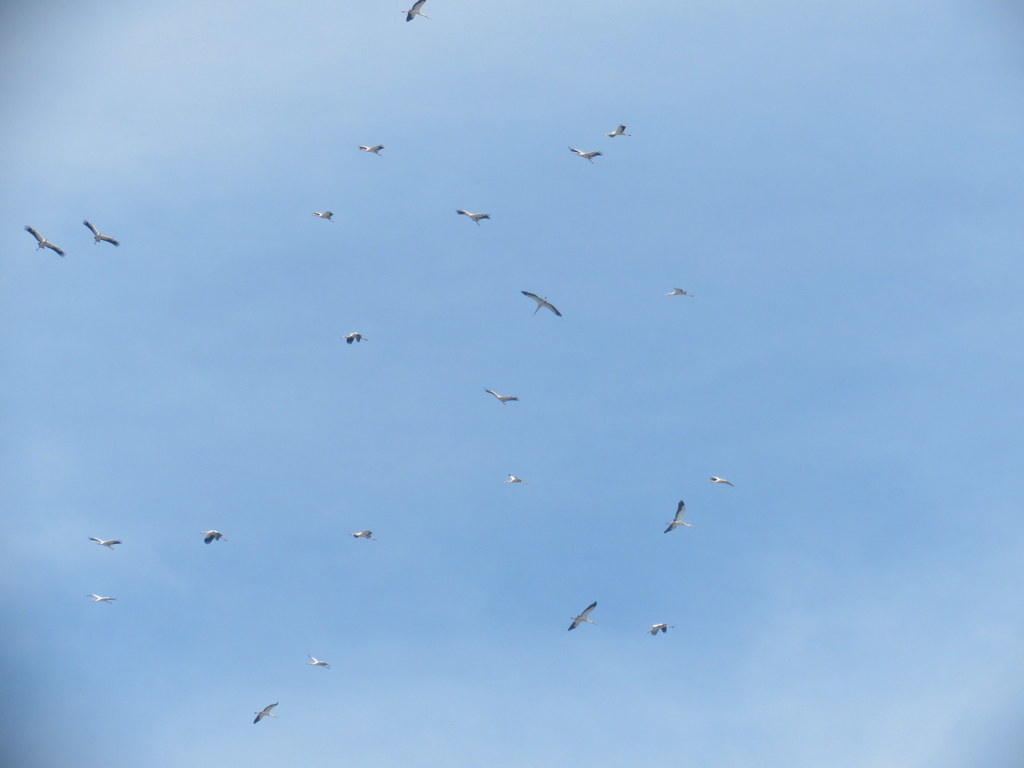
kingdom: Animalia
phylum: Chordata
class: Aves
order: Ciconiiformes
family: Ciconiidae
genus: Ciconia
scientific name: Ciconia maguari
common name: Maguari stork
